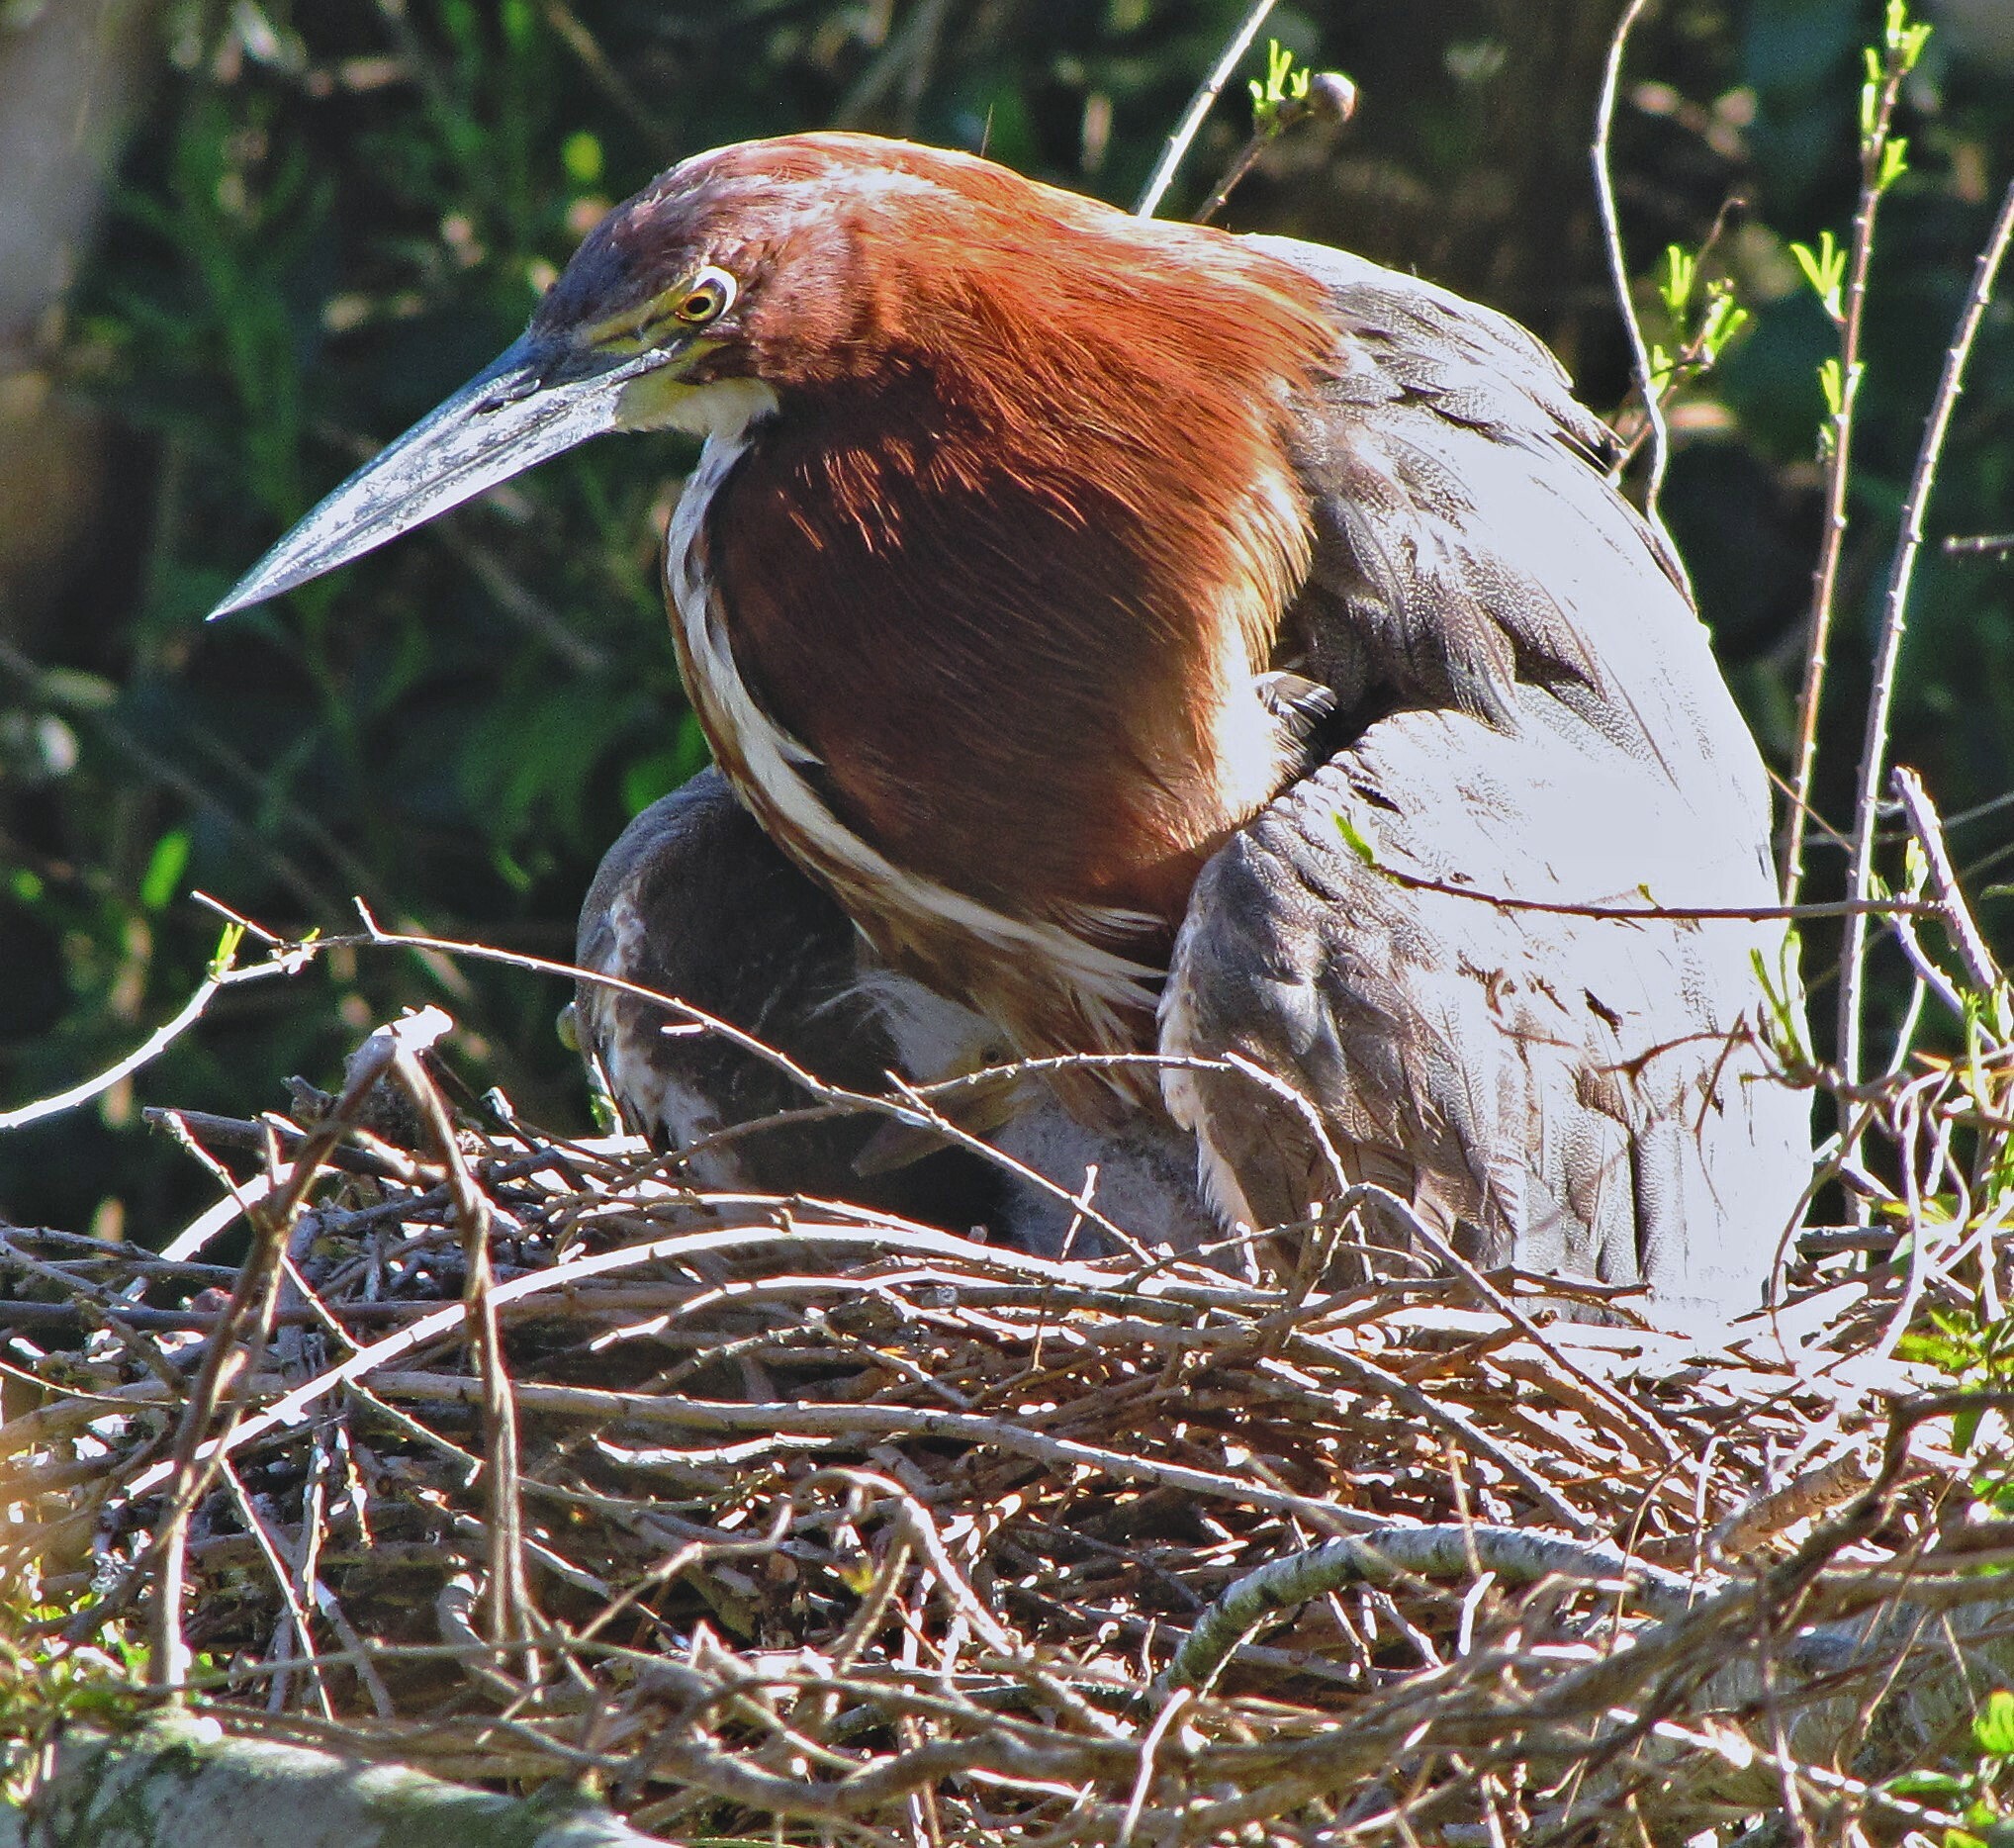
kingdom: Animalia
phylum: Chordata
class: Aves
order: Pelecaniformes
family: Ardeidae
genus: Tigrisoma
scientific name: Tigrisoma lineatum
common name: Rufescent tiger-heron
